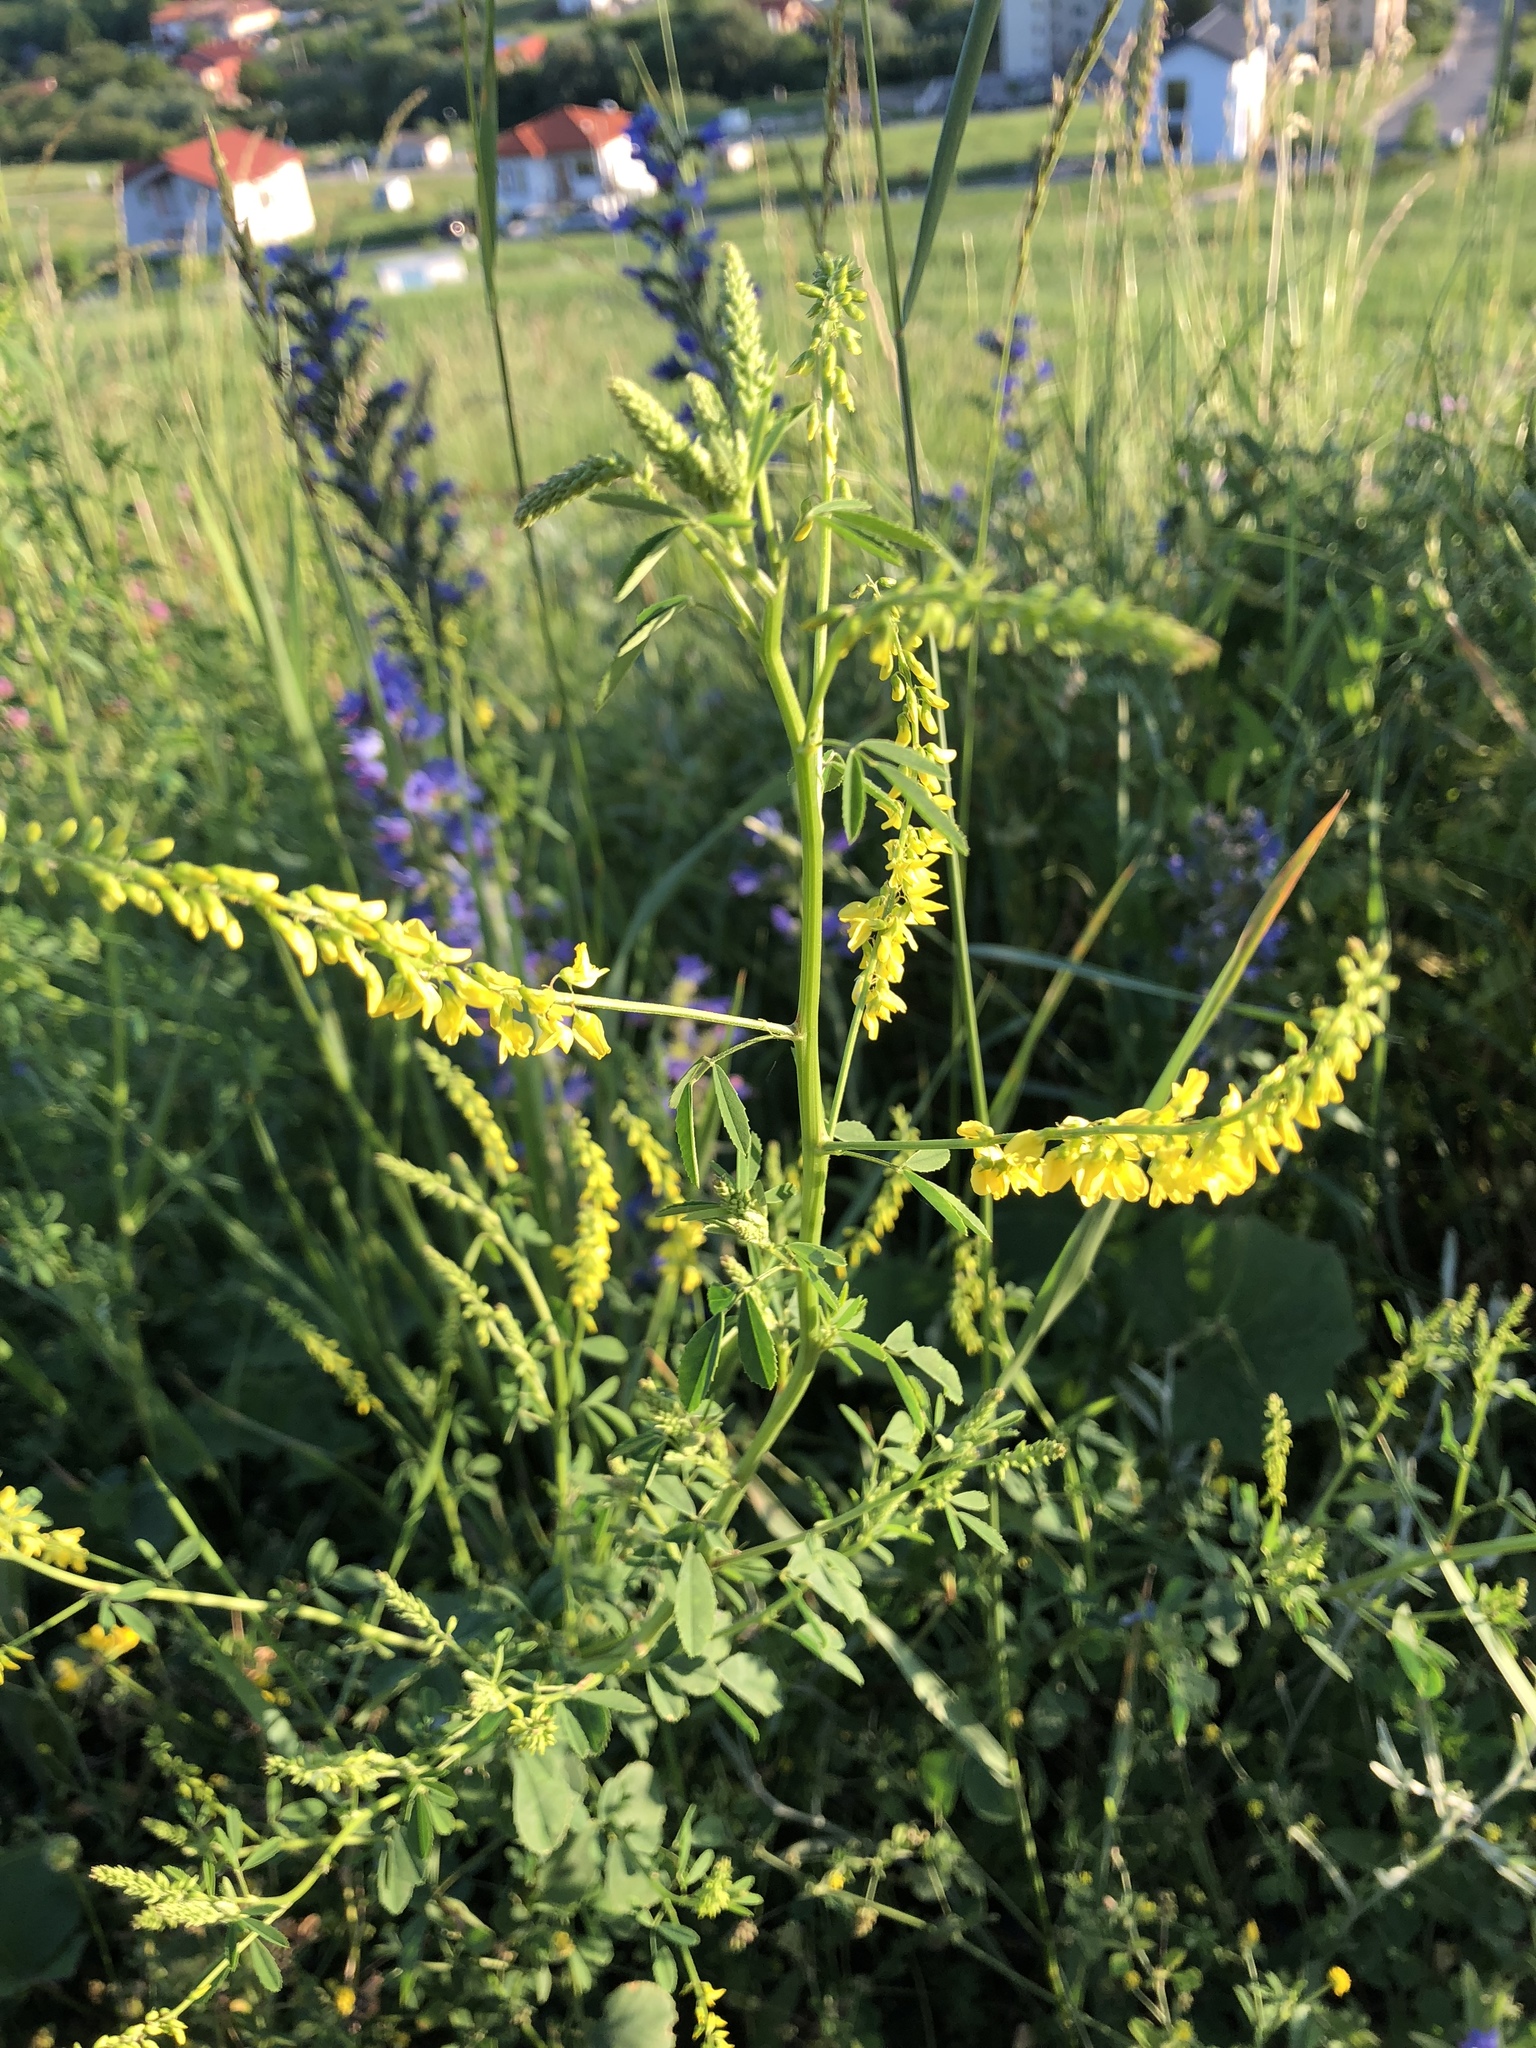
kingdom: Plantae
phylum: Tracheophyta
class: Magnoliopsida
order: Fabales
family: Fabaceae
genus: Melilotus
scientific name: Melilotus officinalis
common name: Sweetclover
